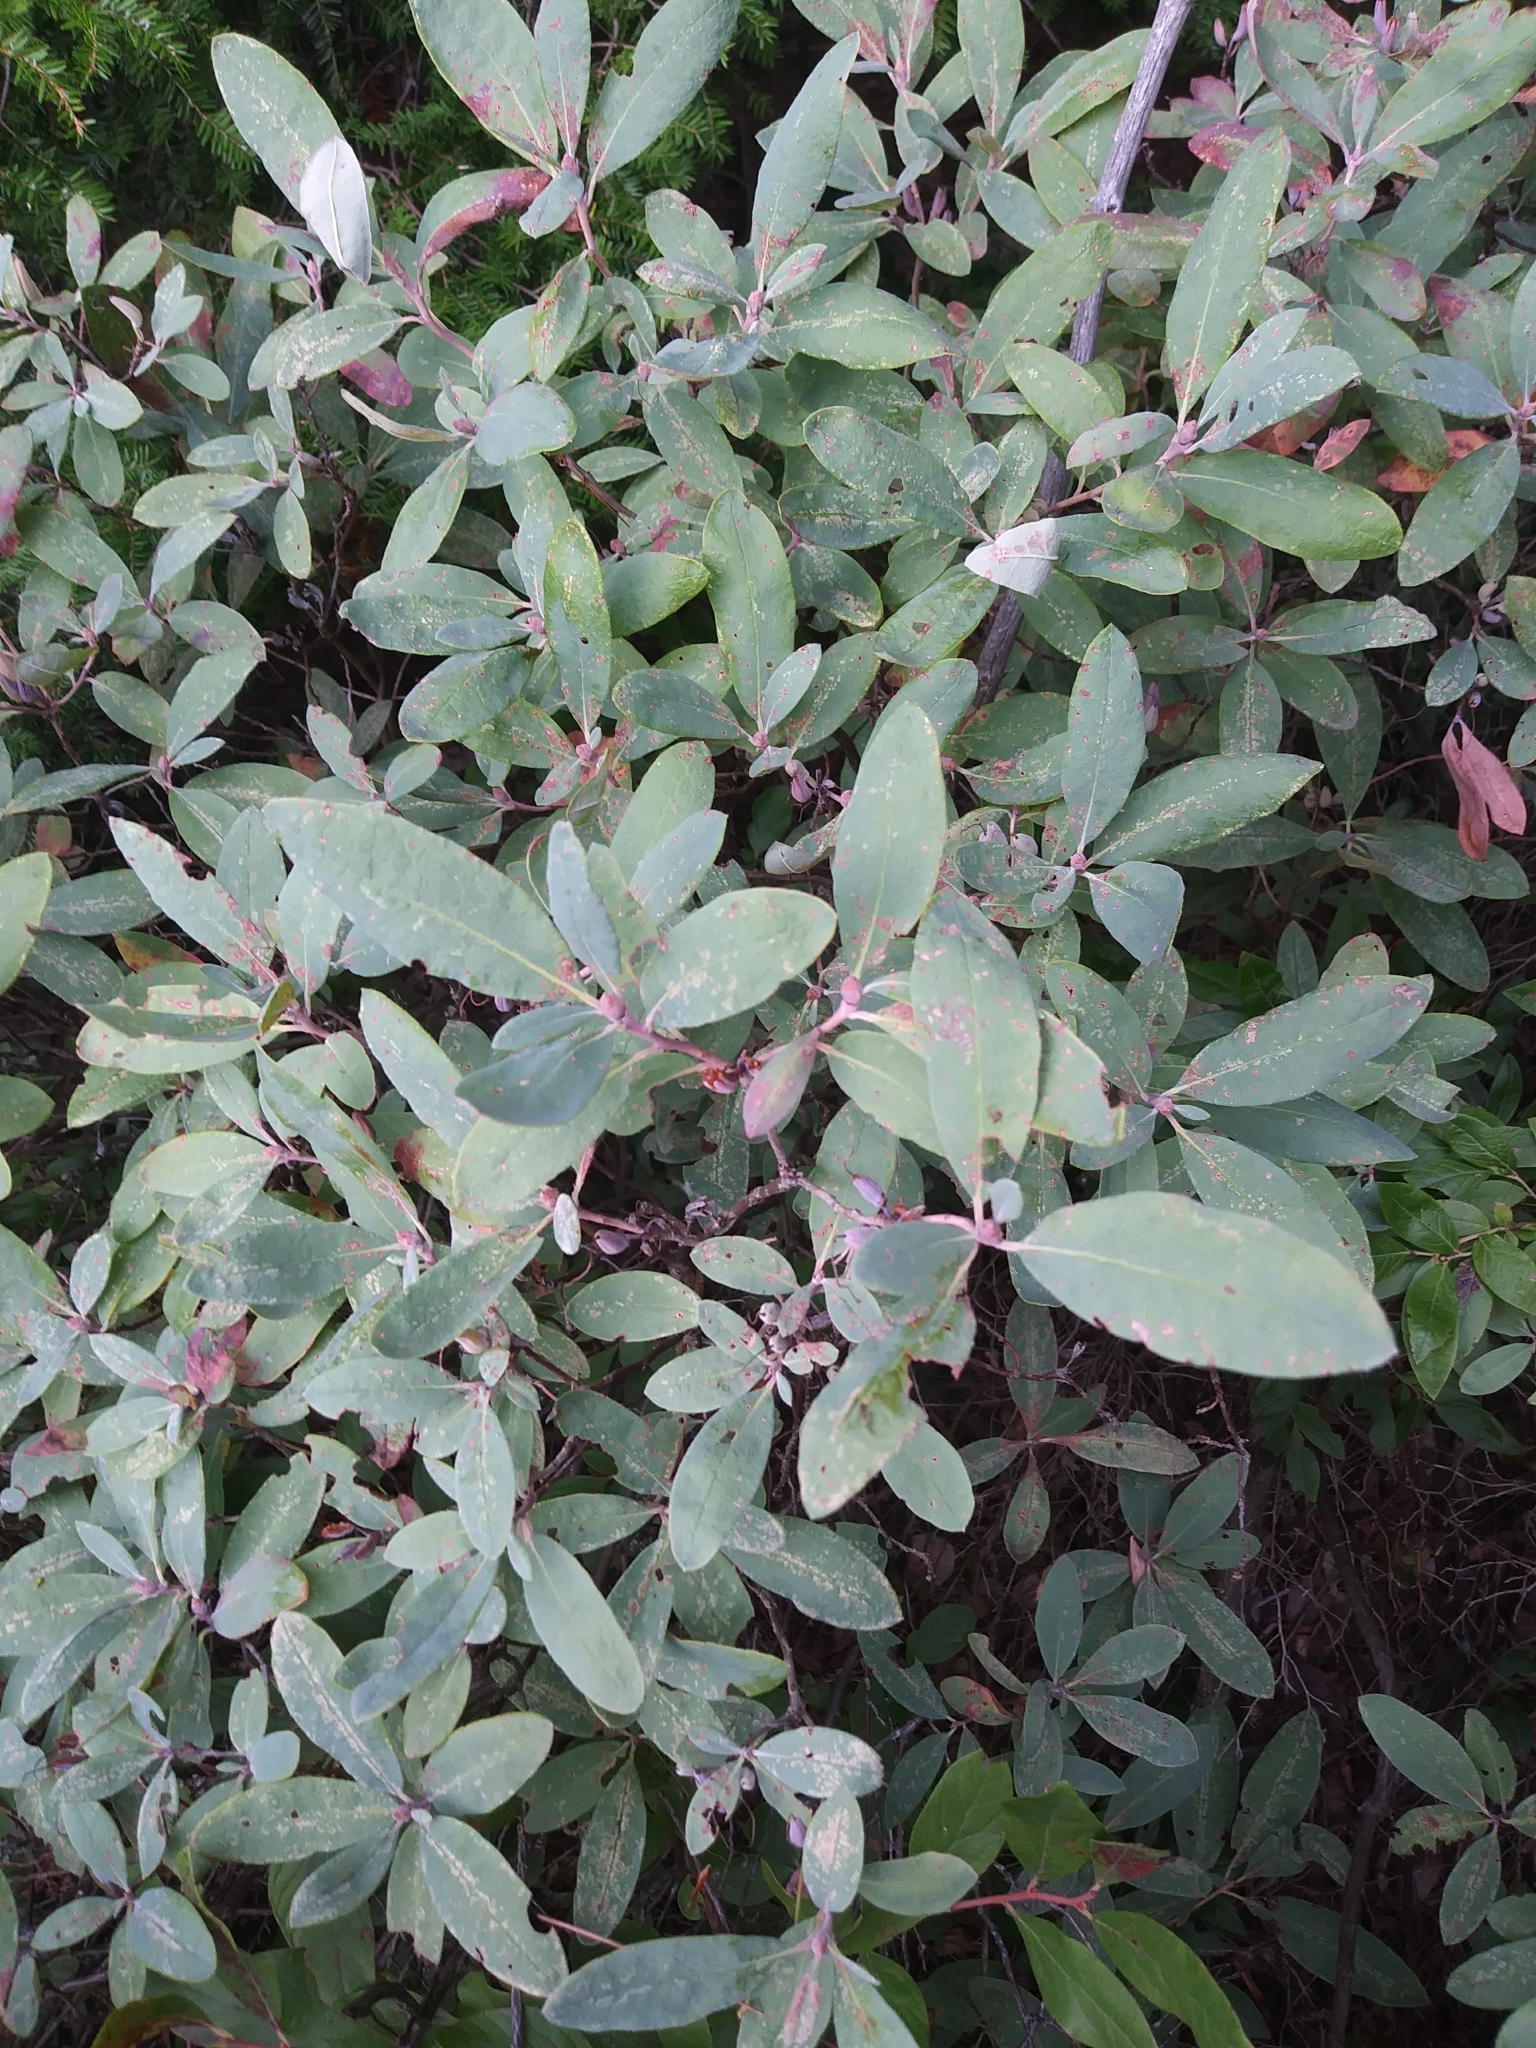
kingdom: Plantae
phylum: Tracheophyta
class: Magnoliopsida
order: Ericales
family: Ericaceae
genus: Rhododendron
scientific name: Rhododendron canadense
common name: Rhodora
